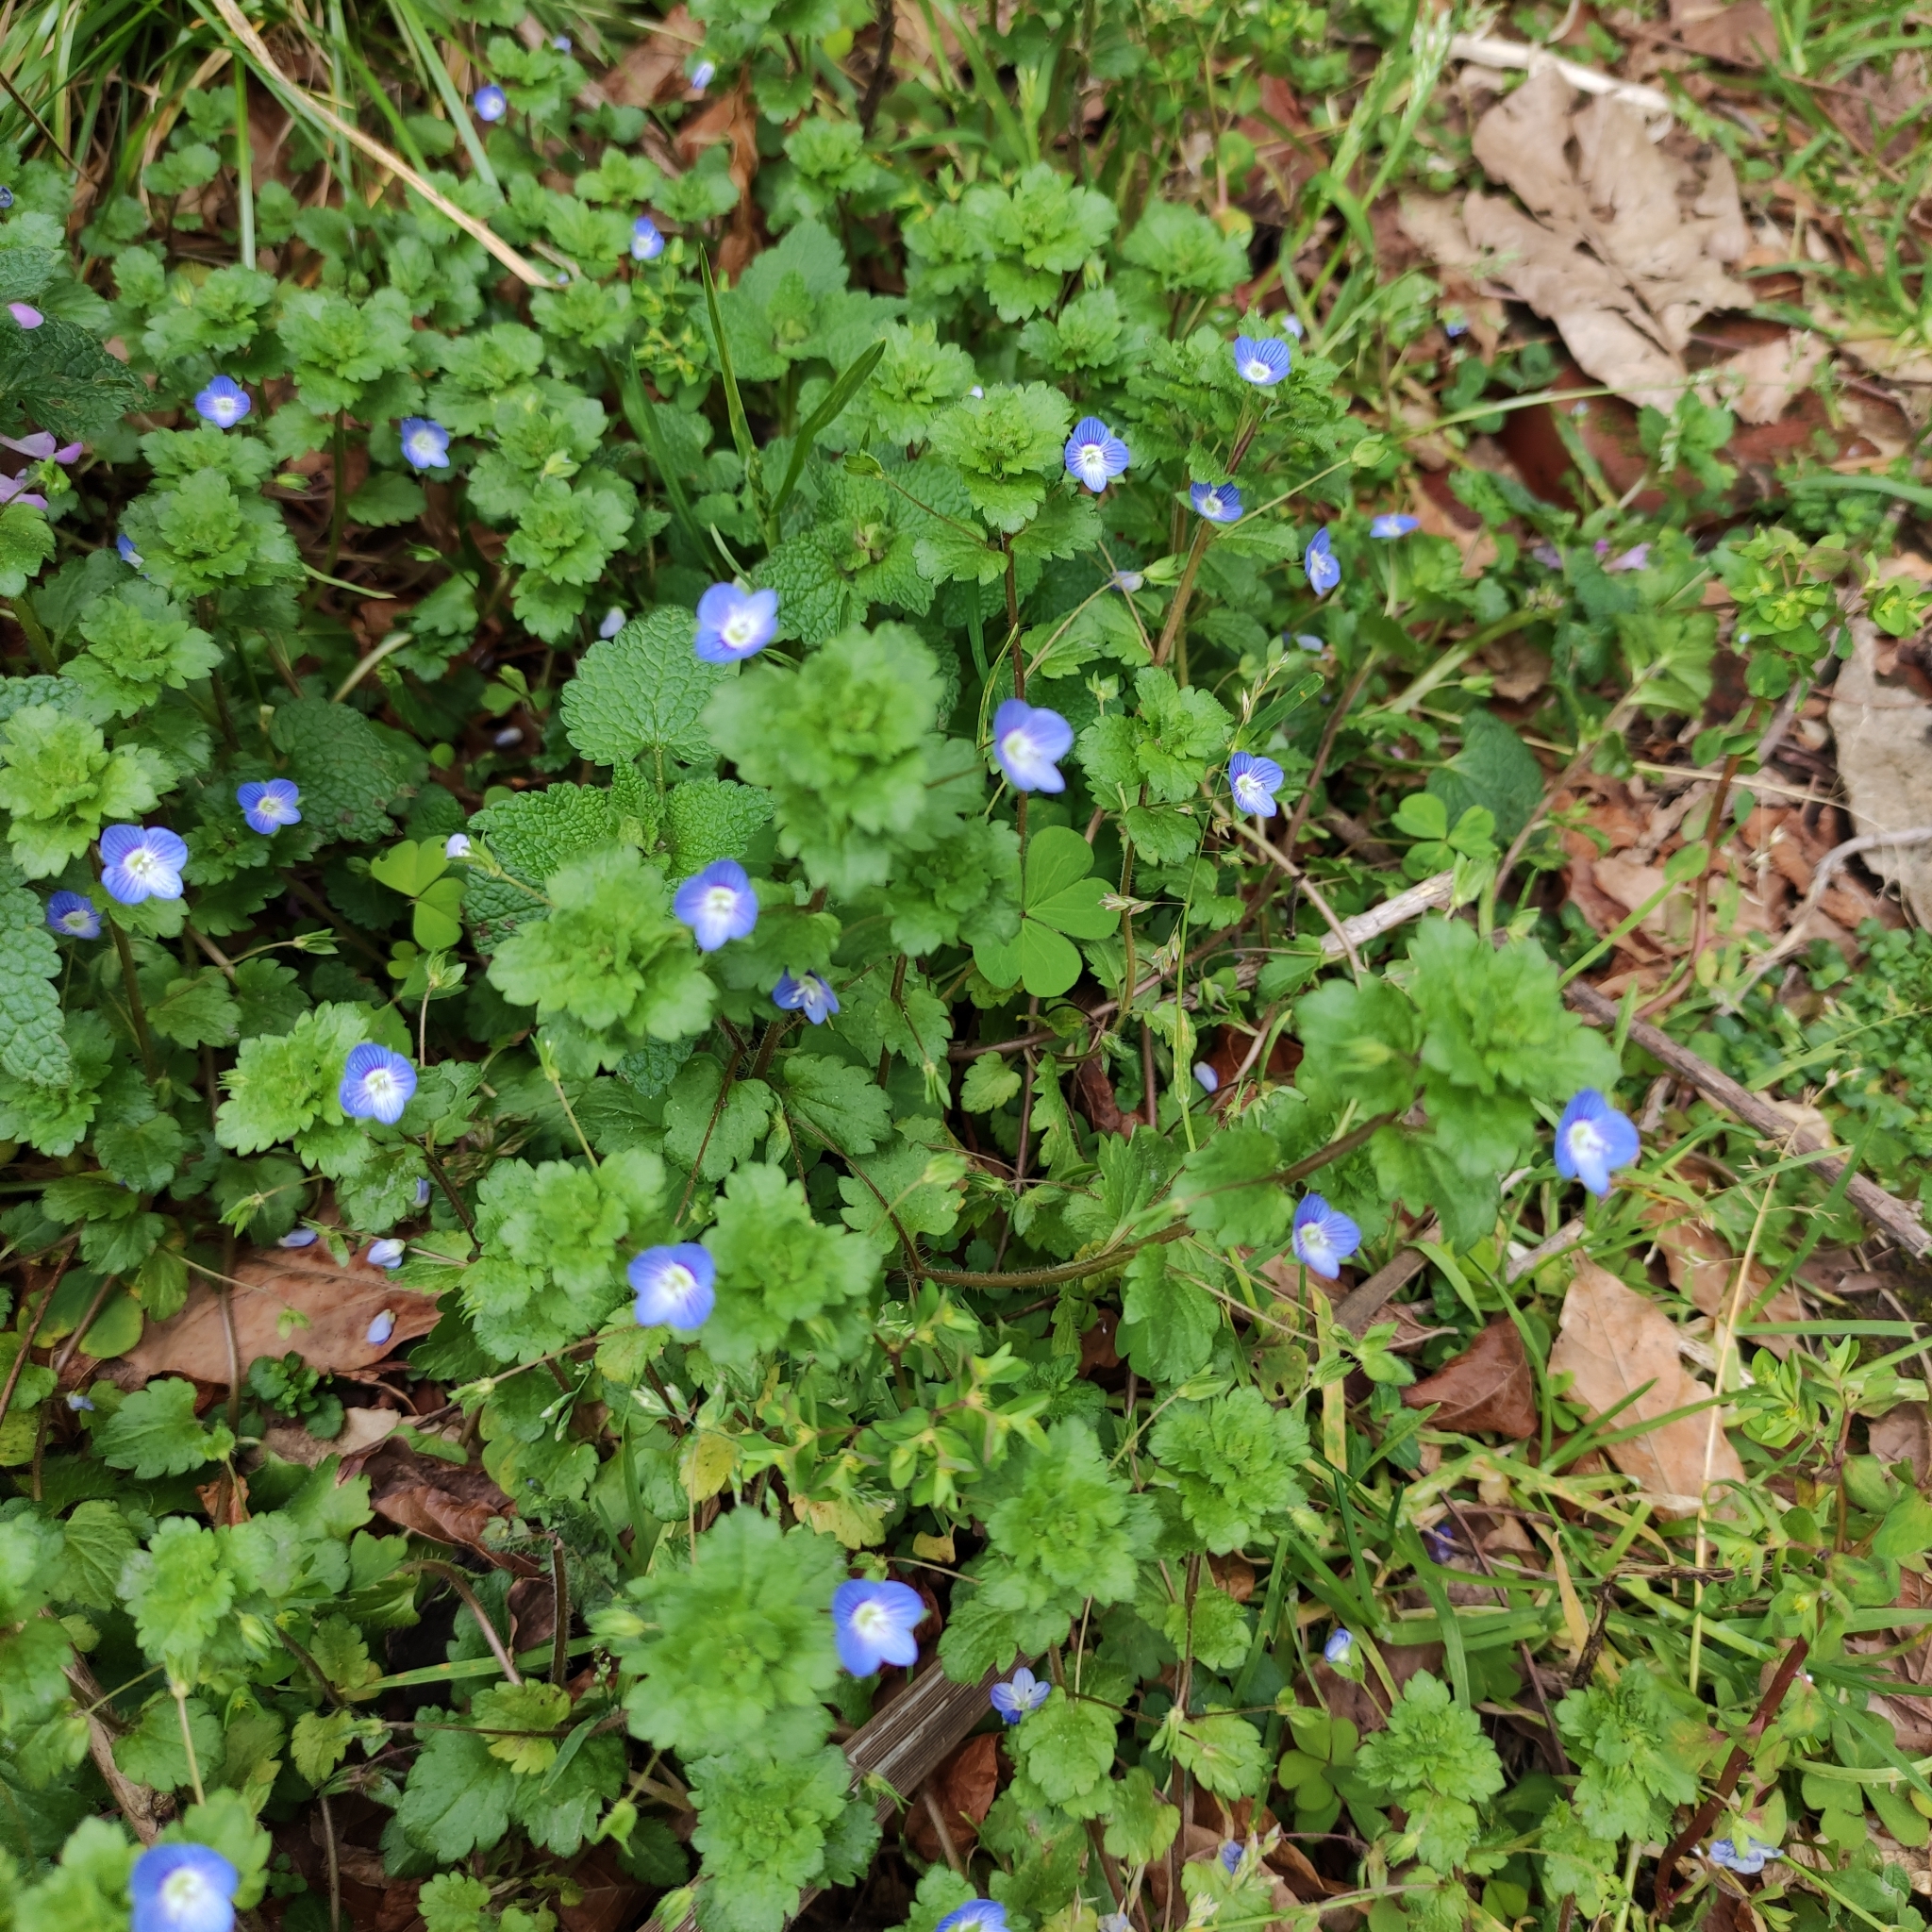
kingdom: Plantae
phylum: Tracheophyta
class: Magnoliopsida
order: Lamiales
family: Plantaginaceae
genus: Veronica
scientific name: Veronica persica
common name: Common field-speedwell
